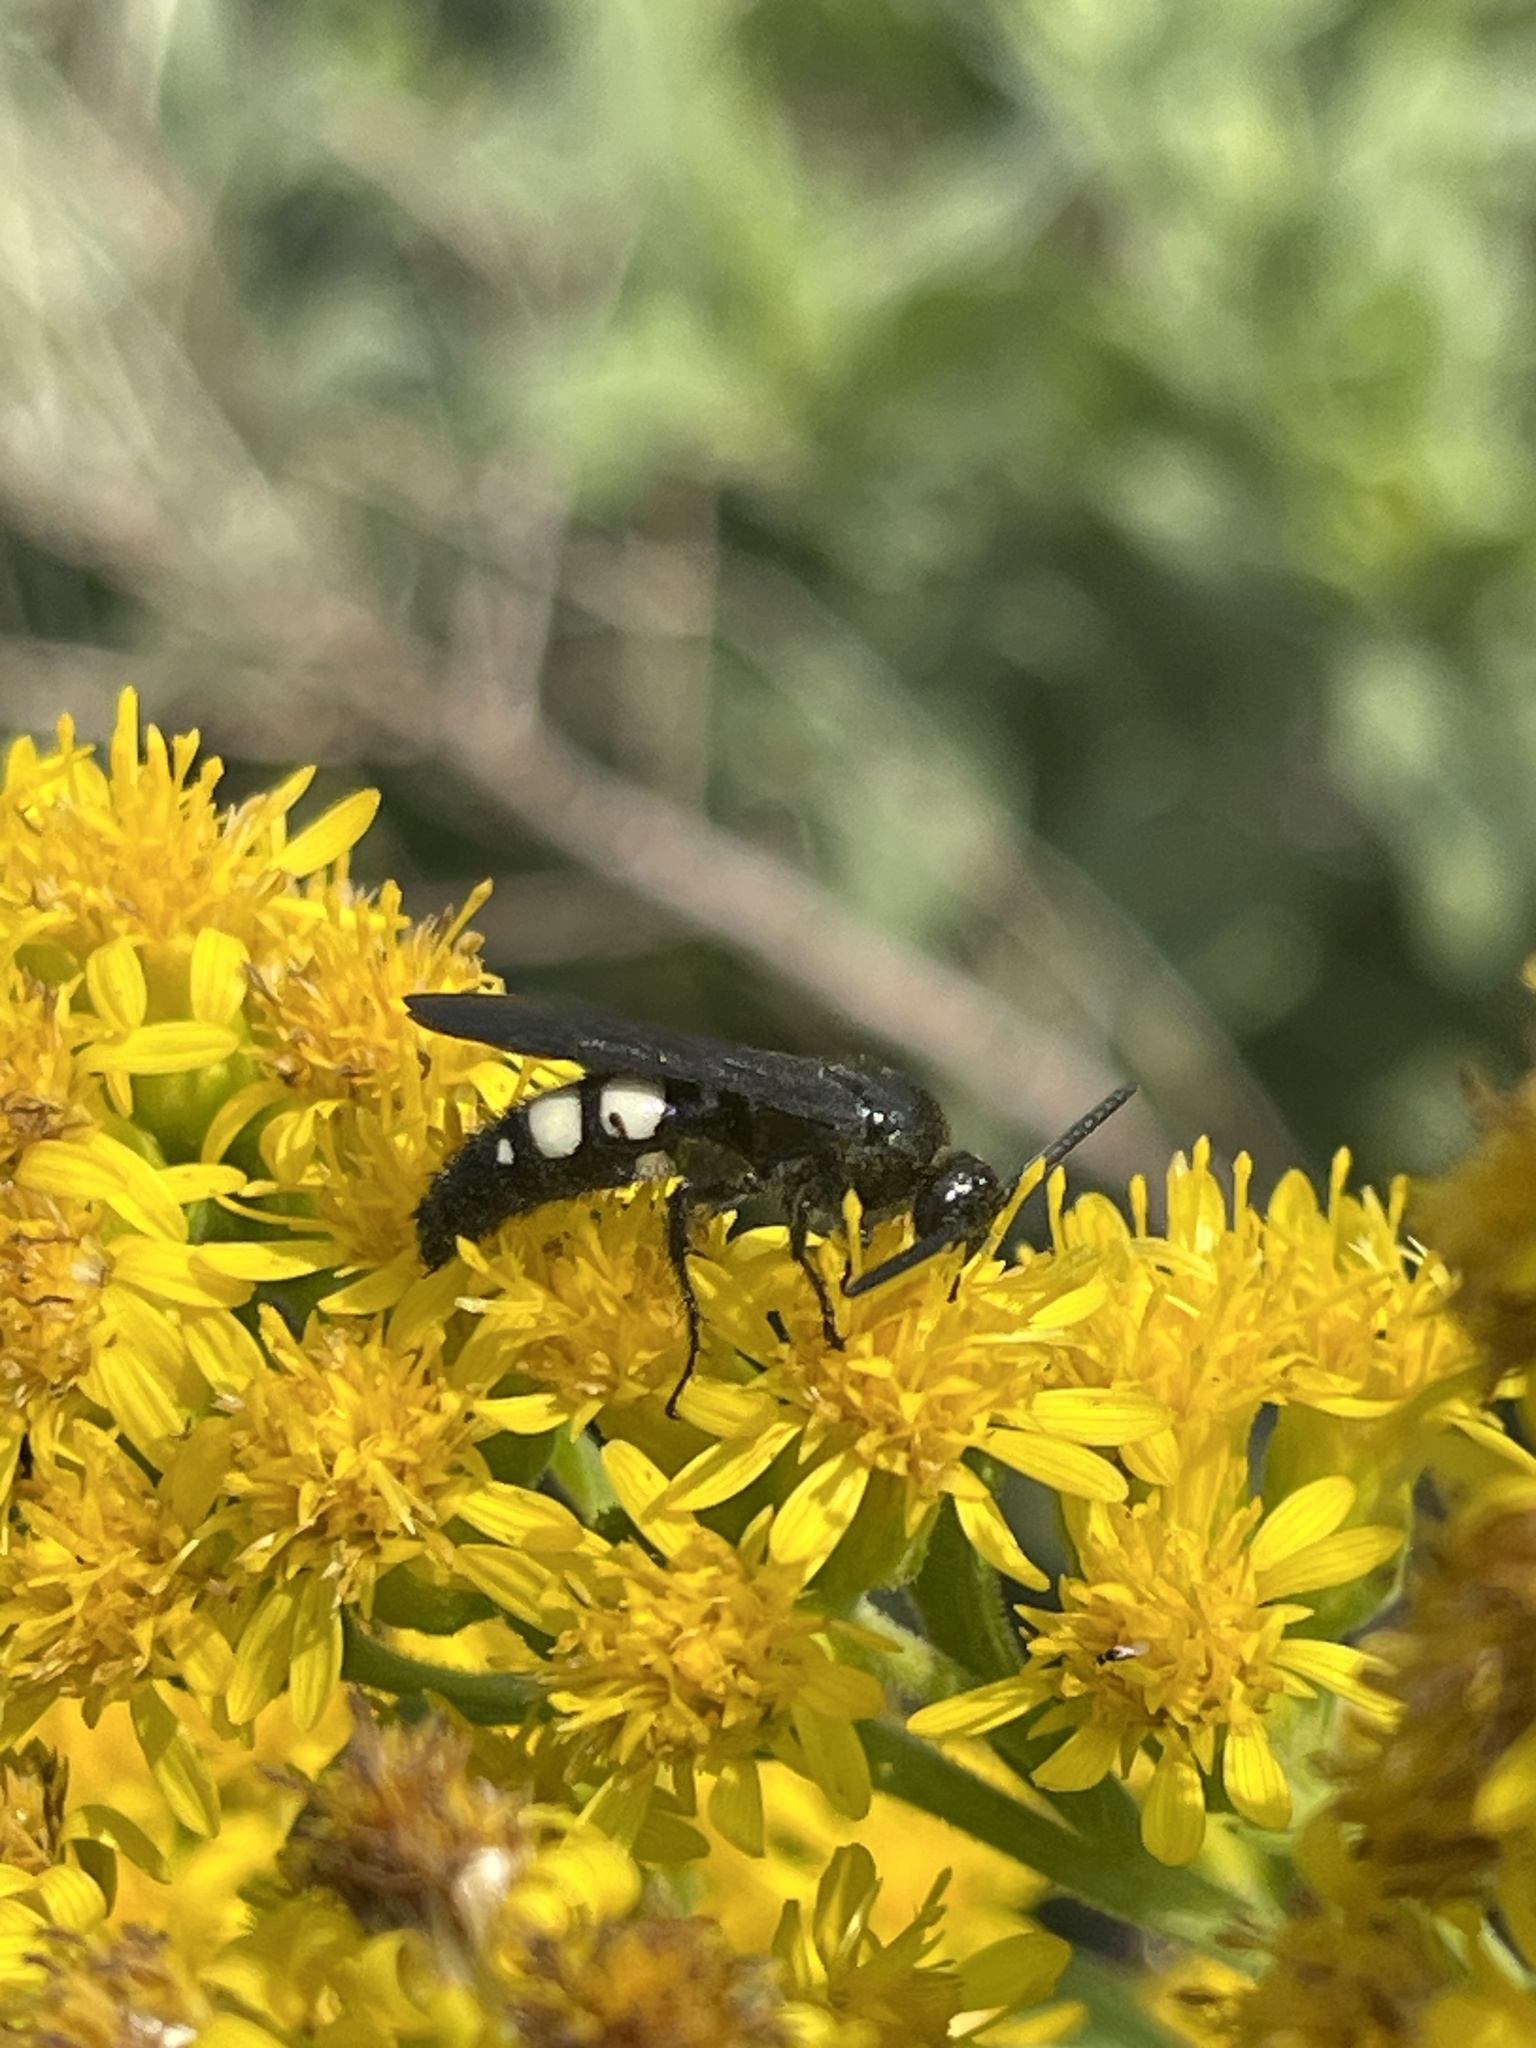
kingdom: Animalia
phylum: Arthropoda
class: Insecta
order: Hymenoptera
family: Scoliidae
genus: Scolia
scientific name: Scolia bicincta
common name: Double-banded scoliid wasp
